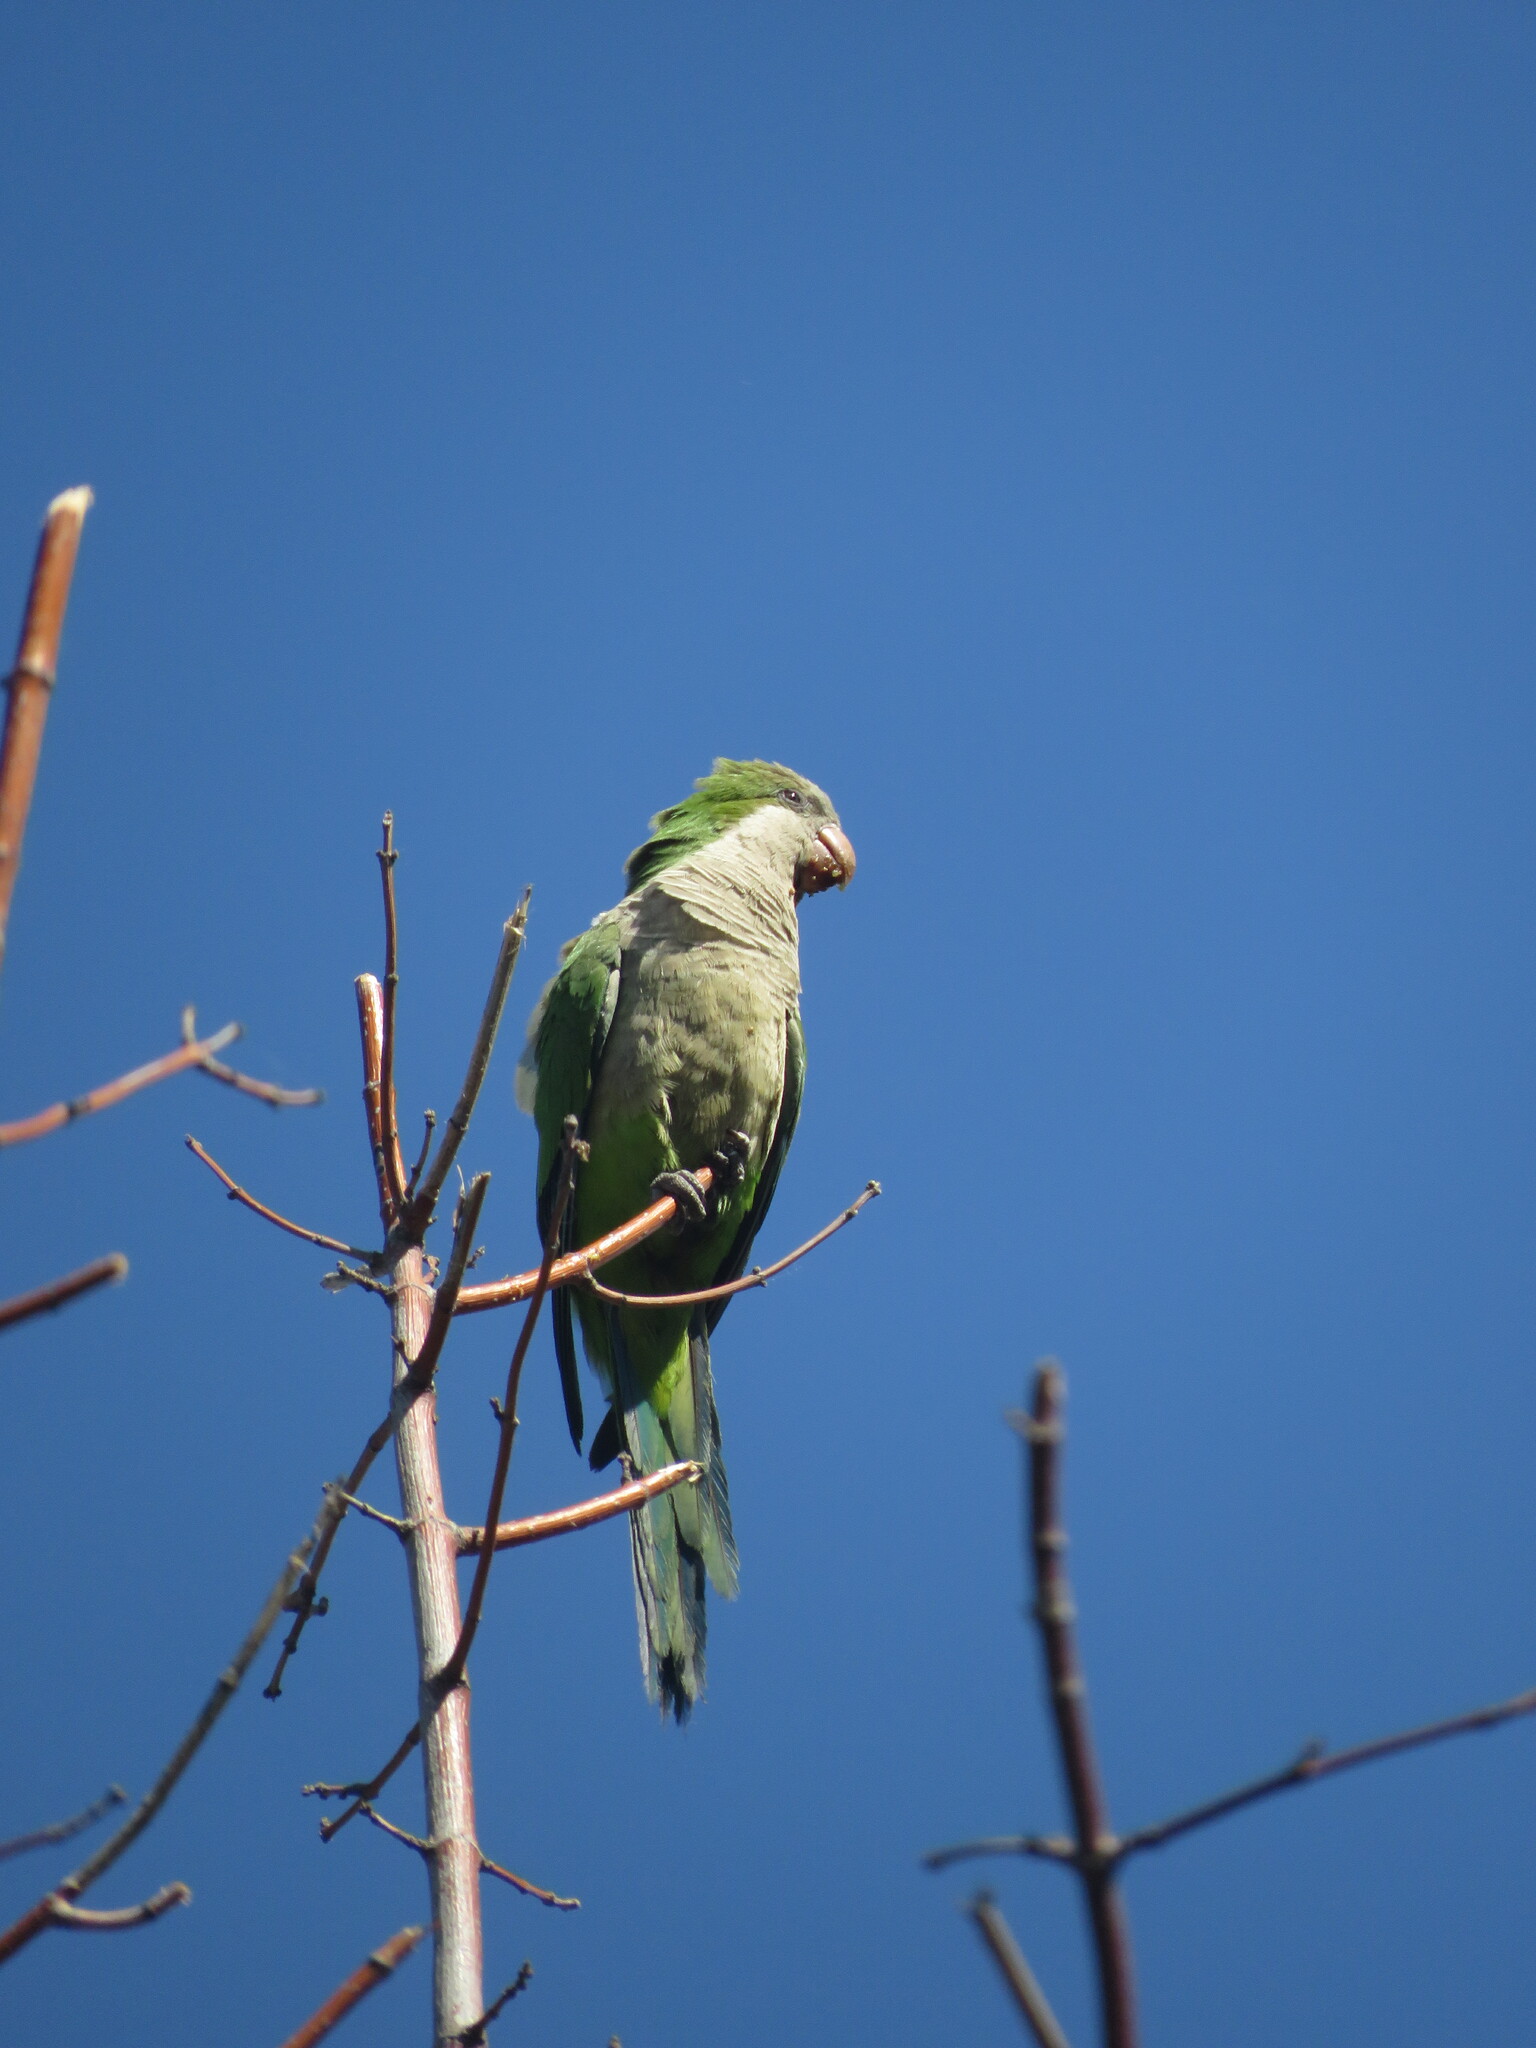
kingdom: Animalia
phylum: Chordata
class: Aves
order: Psittaciformes
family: Psittacidae
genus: Myiopsitta
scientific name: Myiopsitta monachus
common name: Monk parakeet
